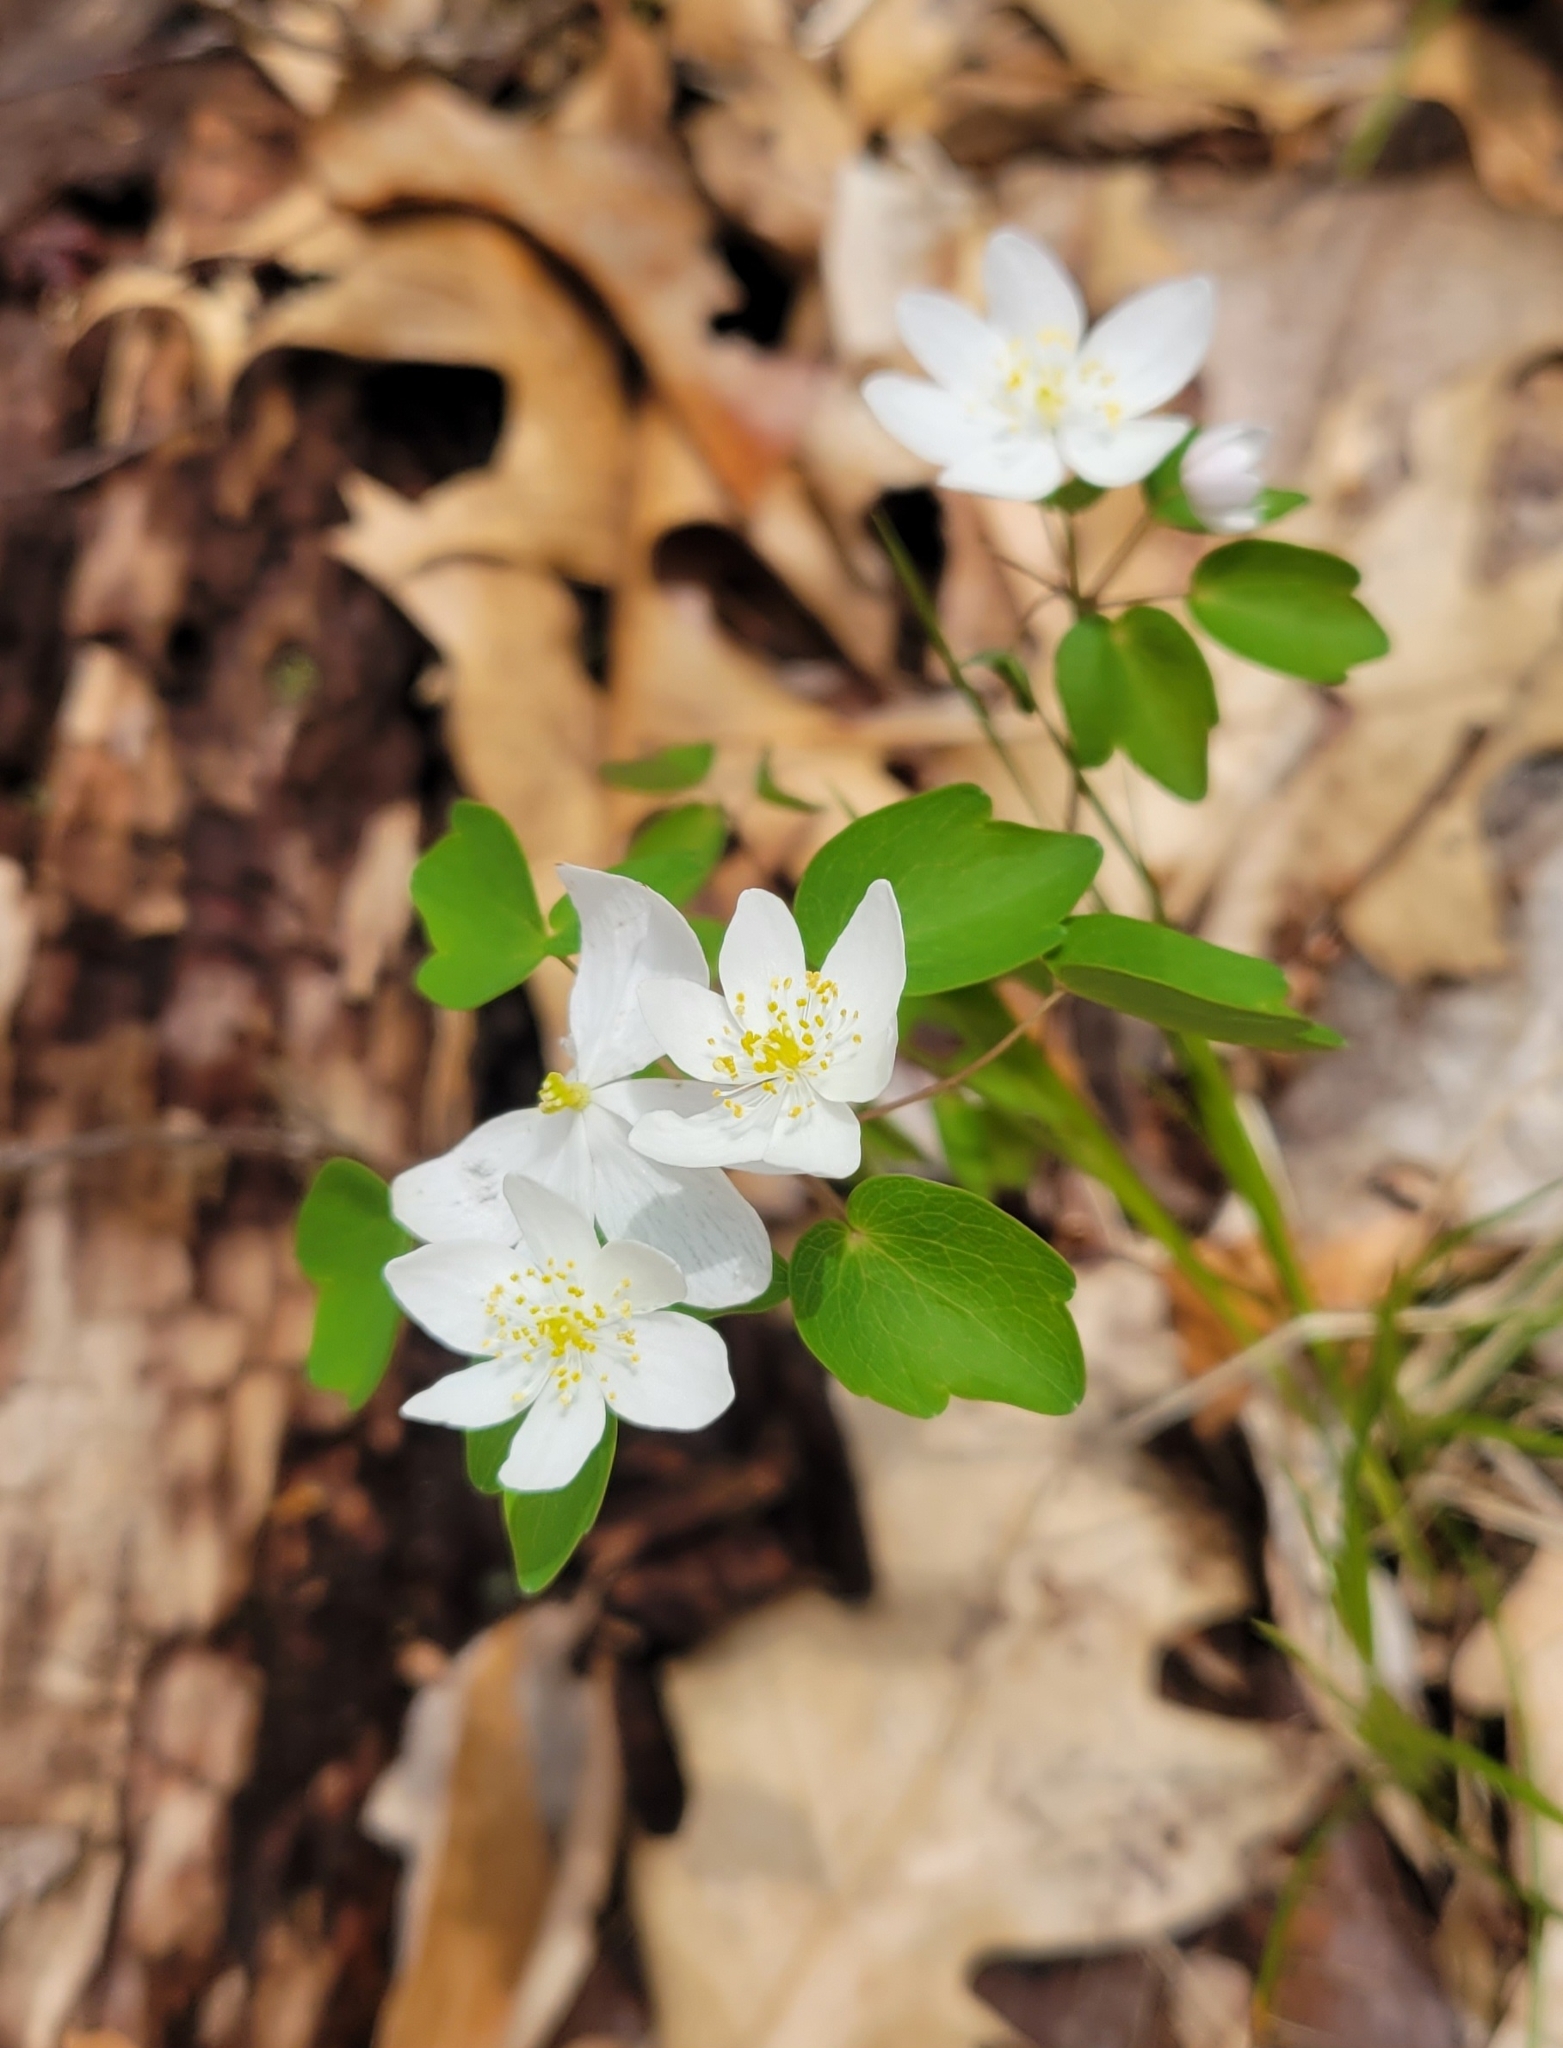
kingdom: Plantae
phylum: Tracheophyta
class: Magnoliopsida
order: Ranunculales
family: Ranunculaceae
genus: Thalictrum
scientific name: Thalictrum thalictroides
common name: Rue-anemone
